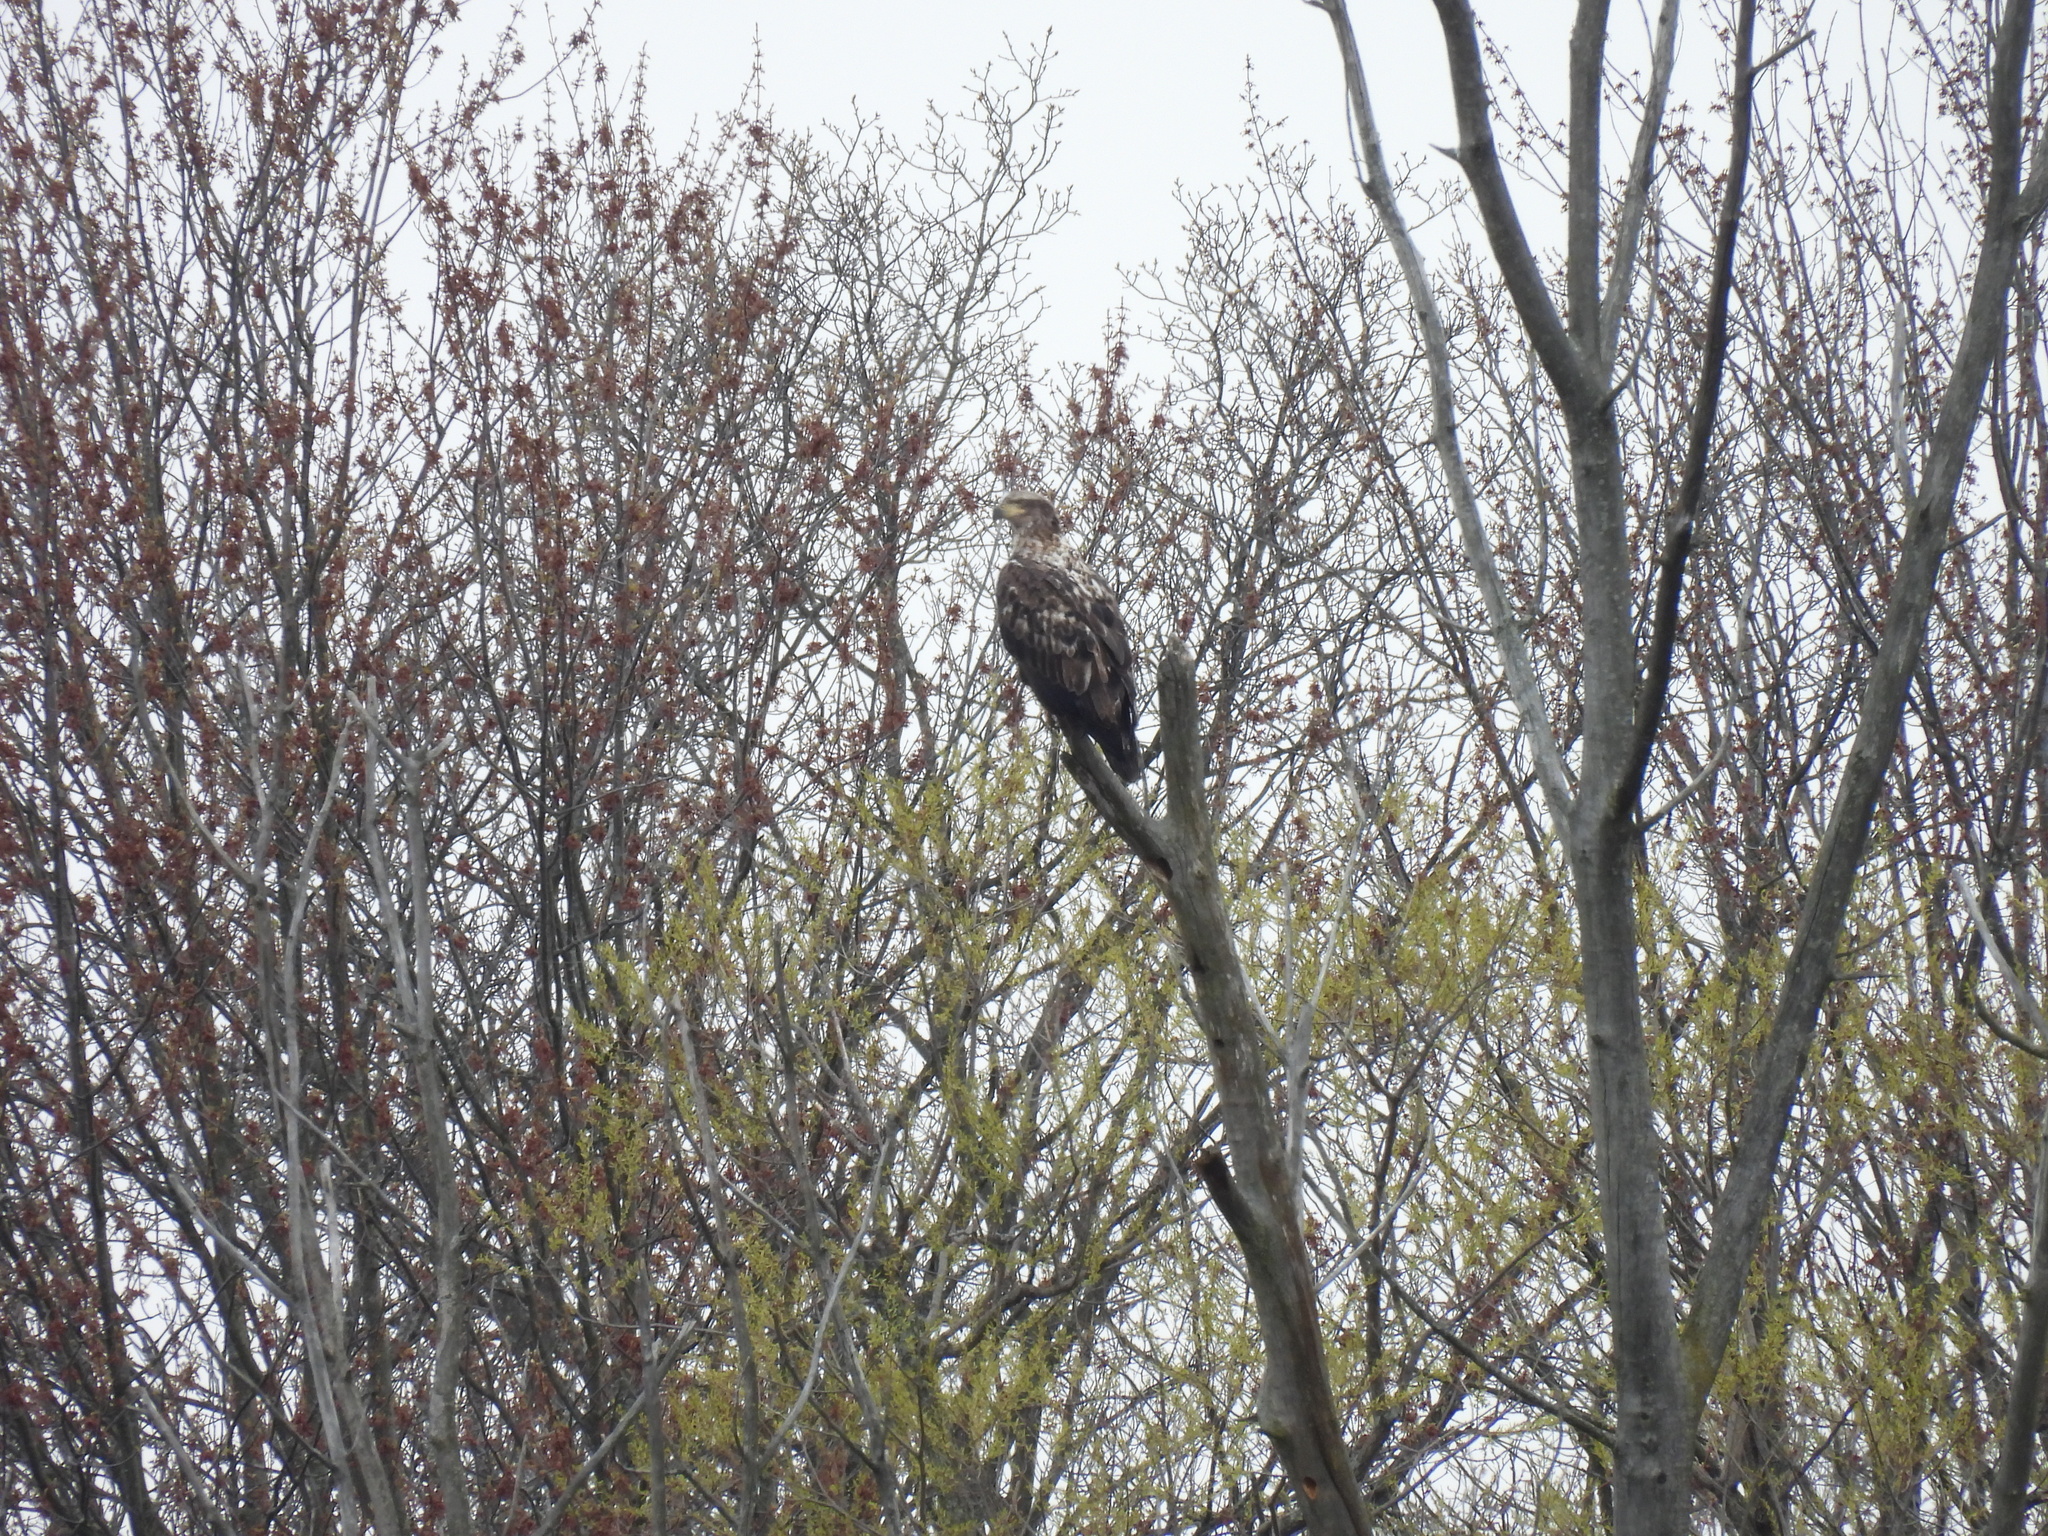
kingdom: Animalia
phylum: Chordata
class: Aves
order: Accipitriformes
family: Accipitridae
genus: Haliaeetus
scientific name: Haliaeetus leucocephalus
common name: Bald eagle
